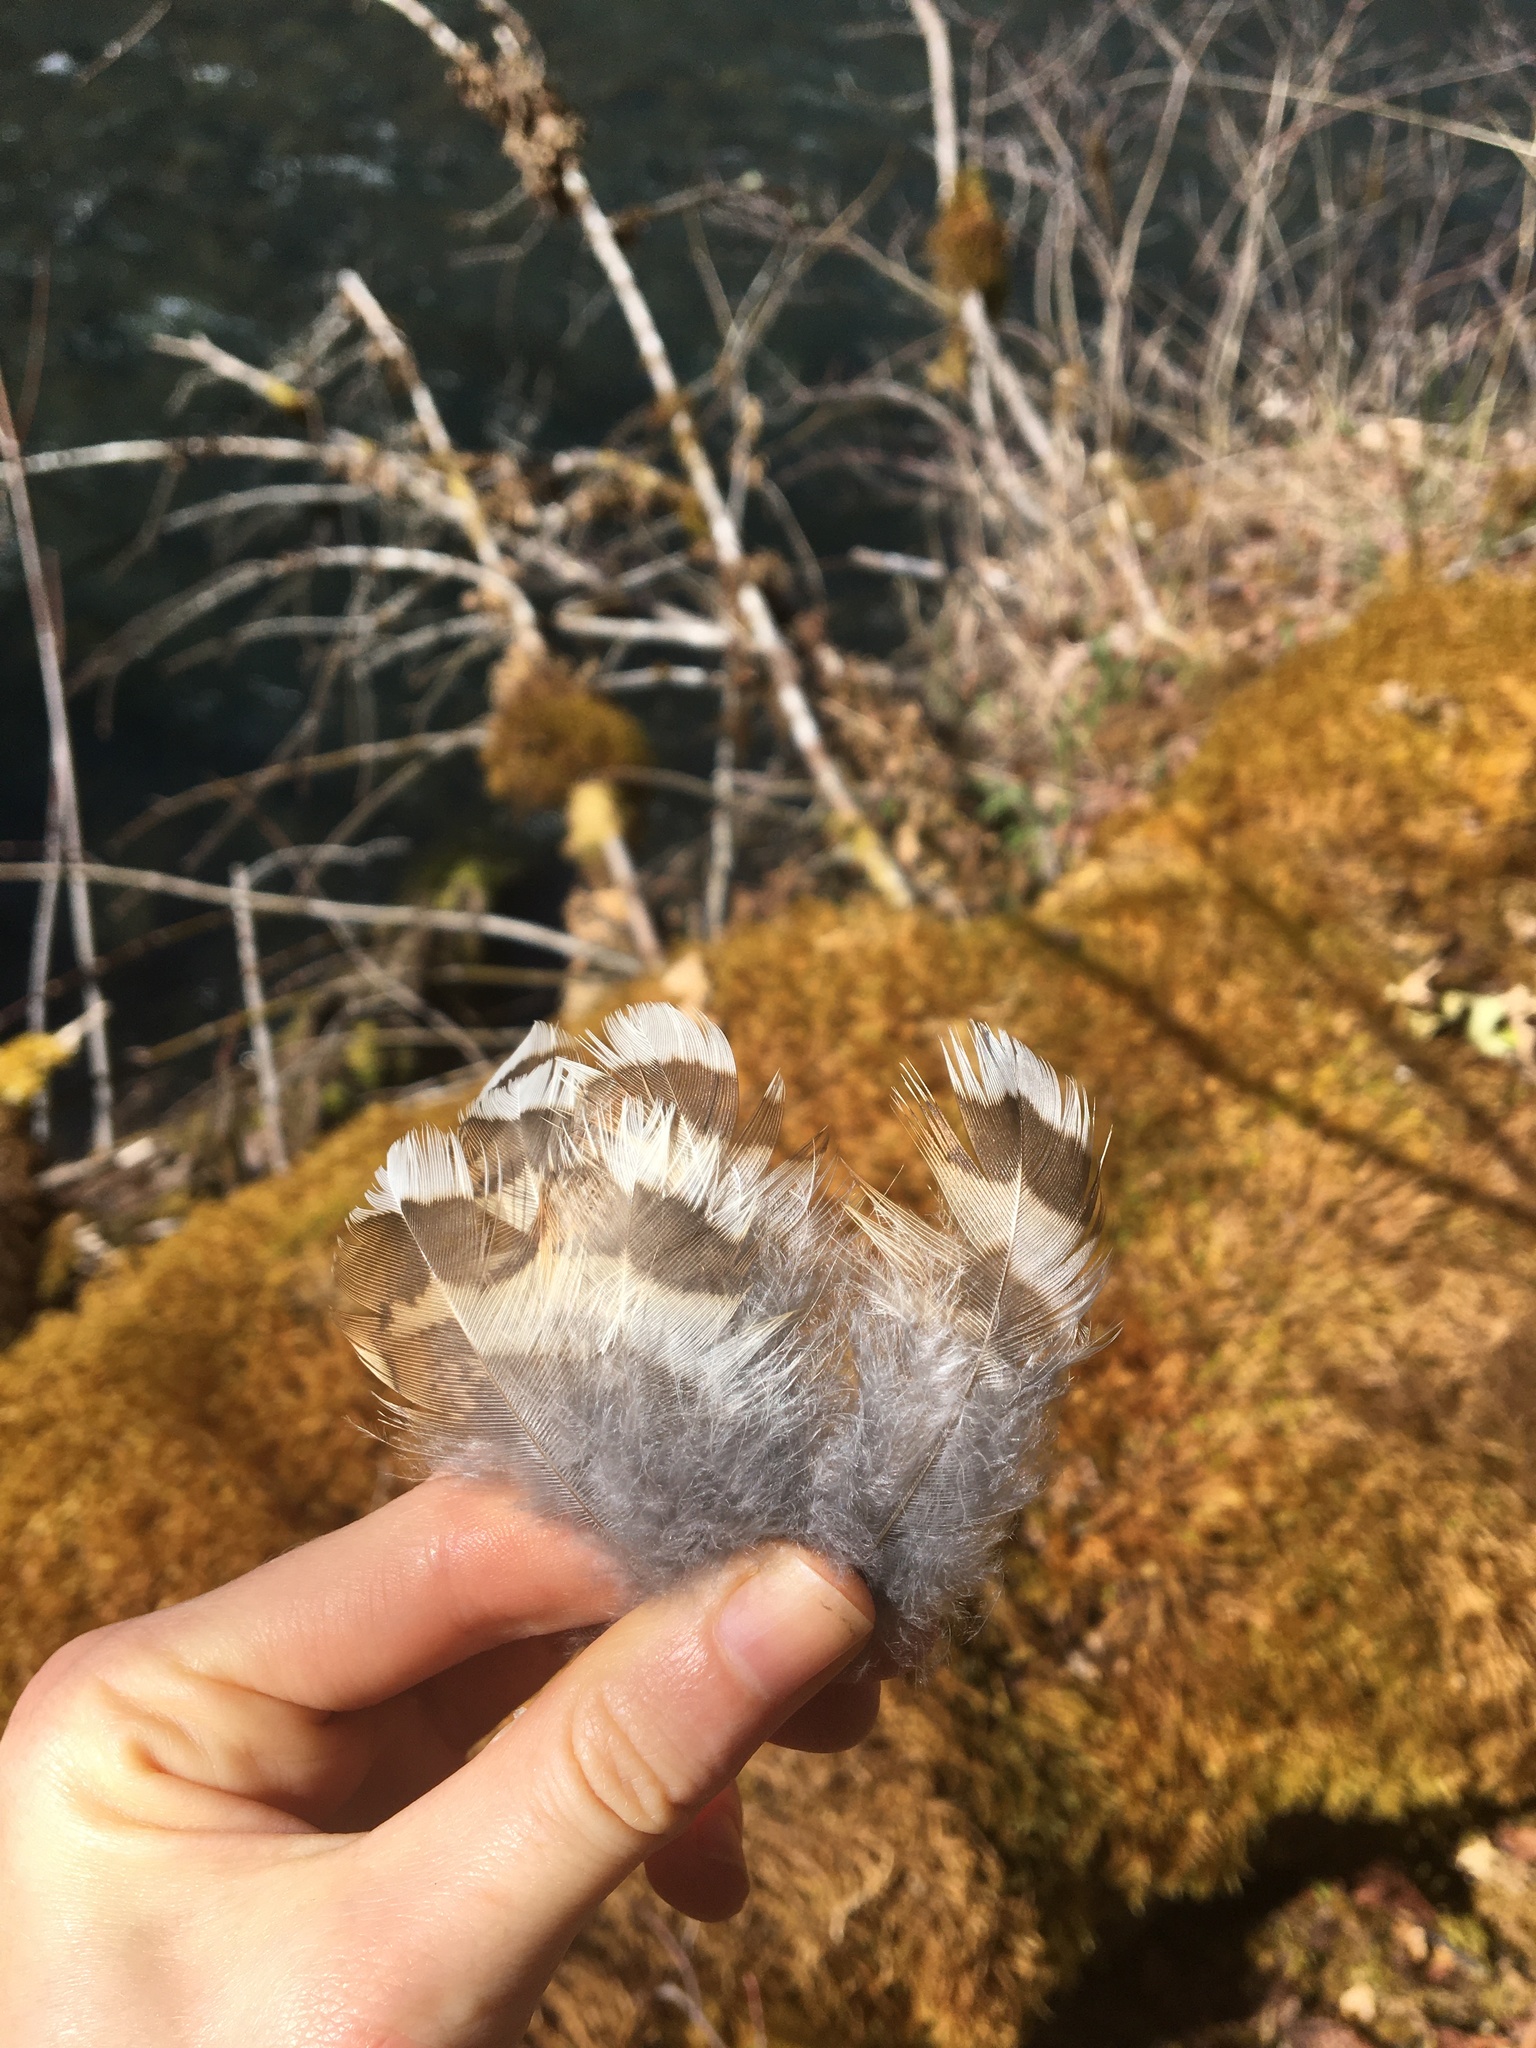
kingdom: Animalia
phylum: Chordata
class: Aves
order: Galliformes
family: Phasianidae
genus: Bonasa
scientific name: Bonasa umbellus
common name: Ruffed grouse
